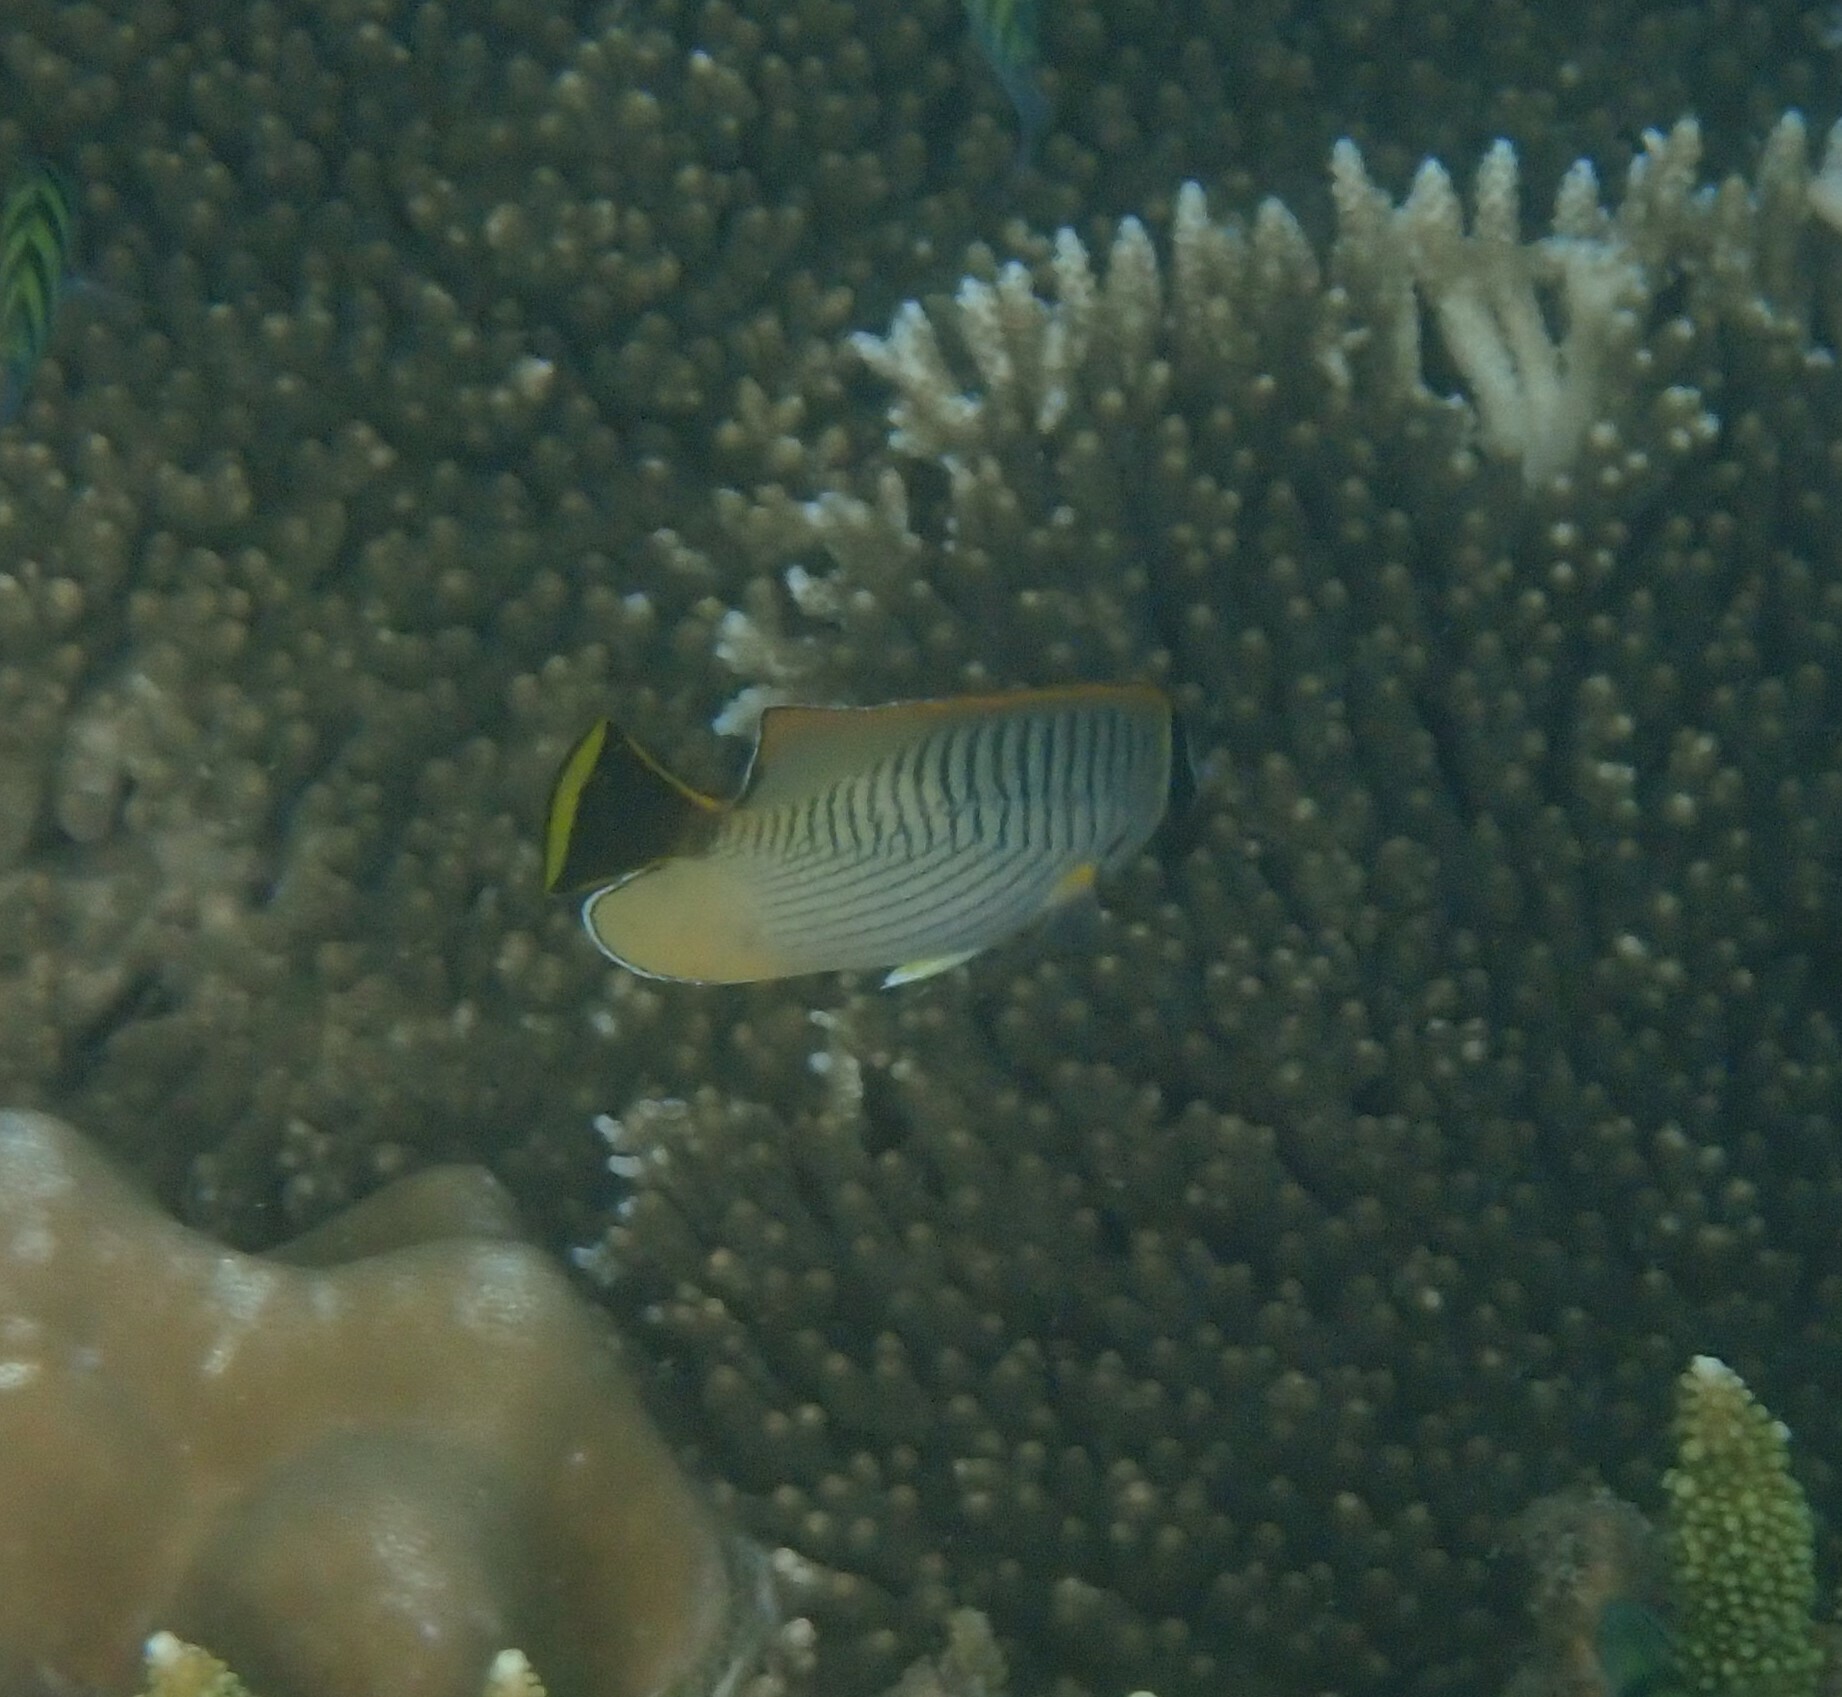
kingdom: Animalia
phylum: Chordata
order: Perciformes
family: Chaetodontidae
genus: Chaetodon
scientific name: Chaetodon trifascialis
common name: Chevroned butterflyfish
